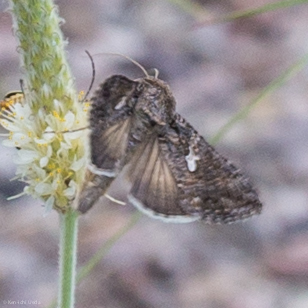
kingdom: Animalia
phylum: Arthropoda
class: Insecta
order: Lepidoptera
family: Noctuidae
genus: Trichoplusia
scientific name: Trichoplusia ni
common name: Ni moth
